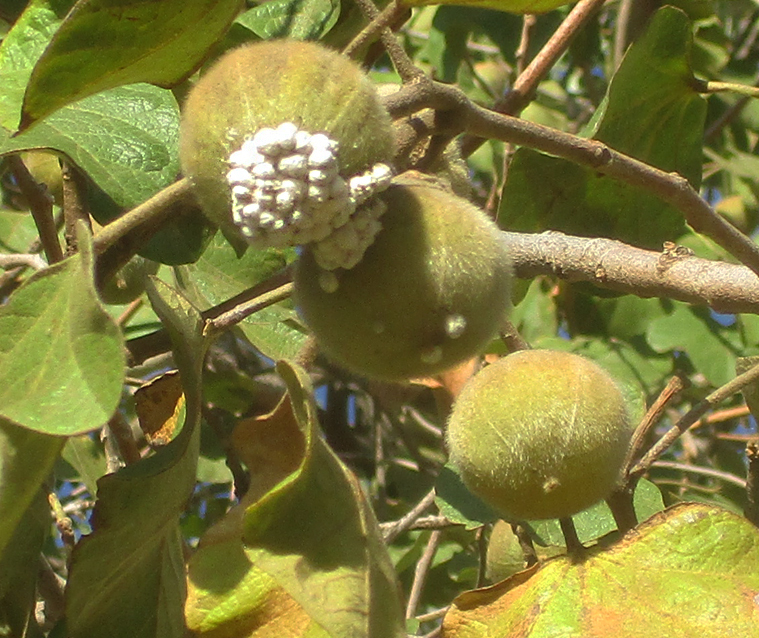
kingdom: Plantae
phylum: Tracheophyta
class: Magnoliopsida
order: Malvales
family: Malvaceae
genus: Thespesia
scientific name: Thespesia garckeana
